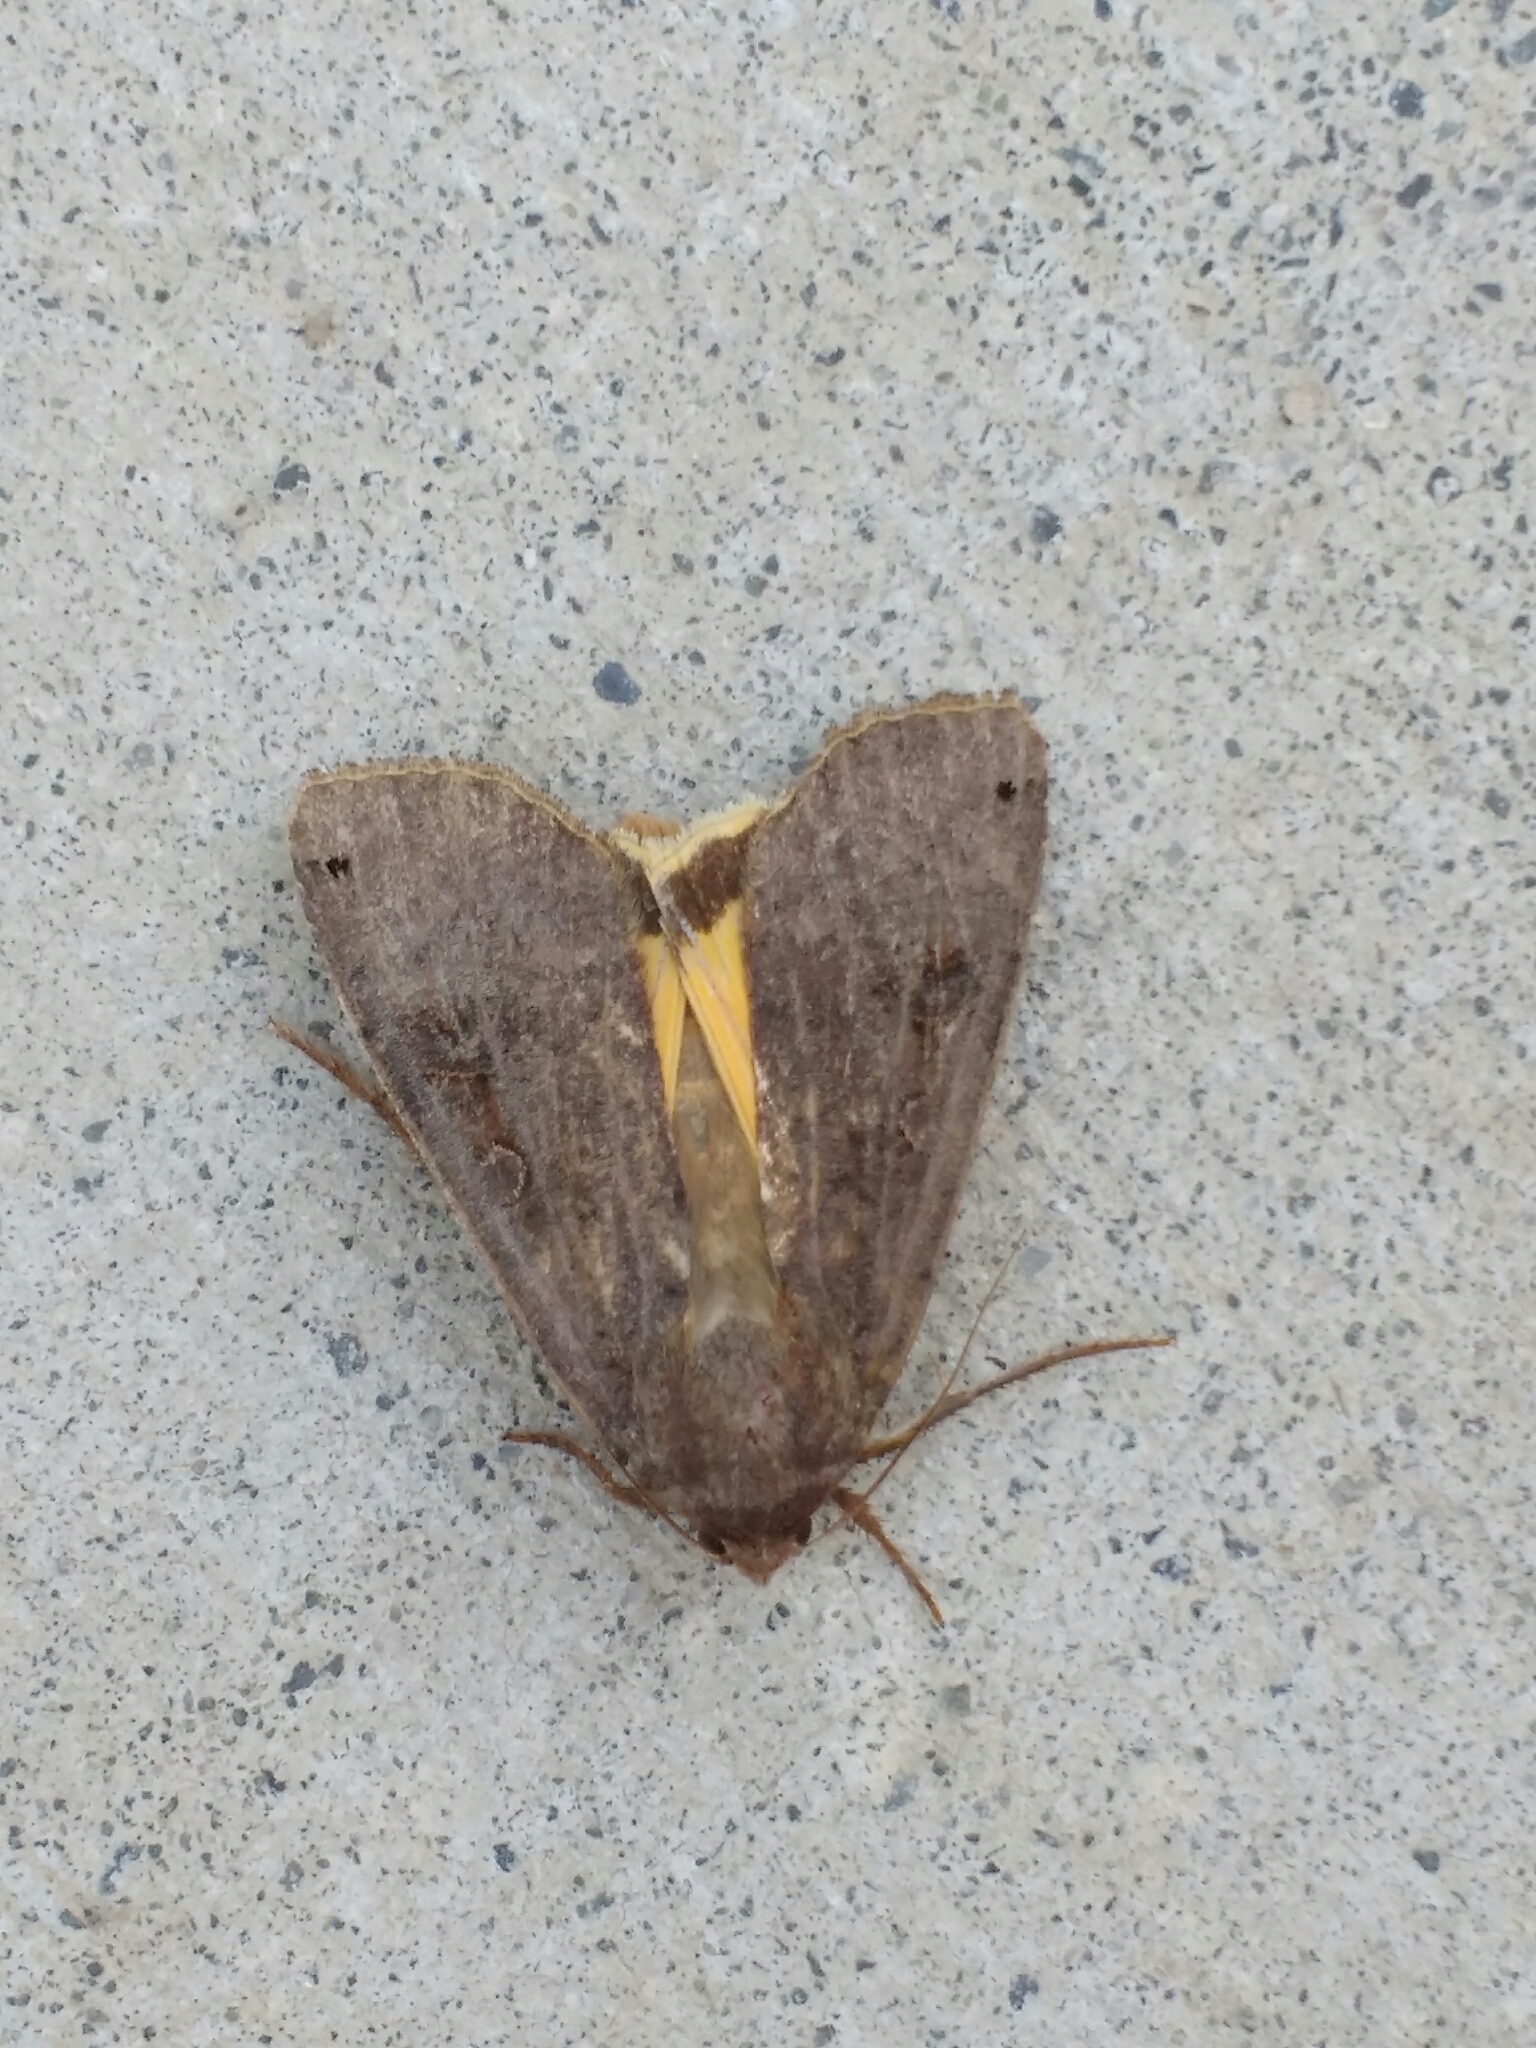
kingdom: Animalia
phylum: Arthropoda
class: Insecta
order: Lepidoptera
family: Noctuidae
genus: Noctua
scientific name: Noctua pronuba
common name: Large yellow underwing
